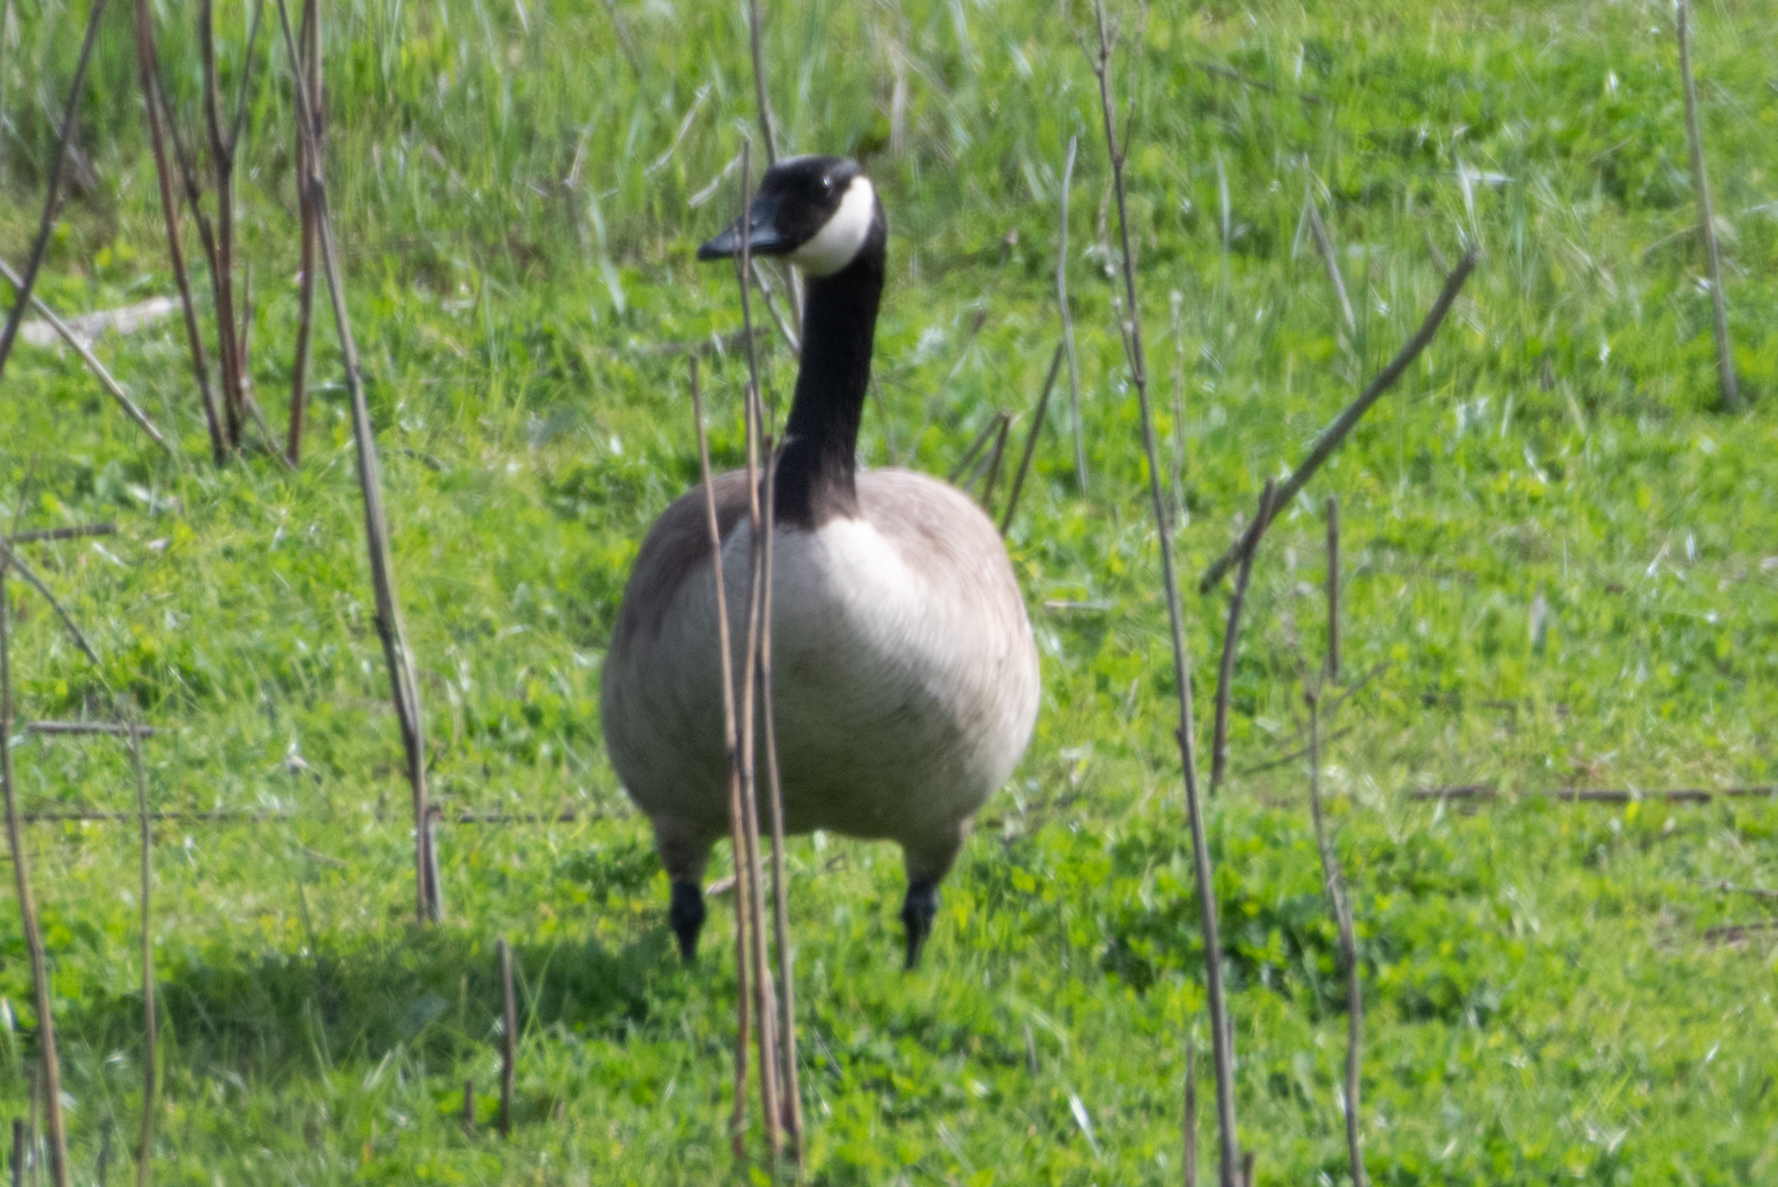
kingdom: Animalia
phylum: Chordata
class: Aves
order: Anseriformes
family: Anatidae
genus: Branta
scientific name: Branta canadensis
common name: Canada goose
